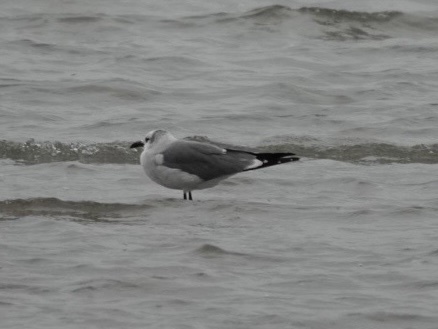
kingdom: Animalia
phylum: Chordata
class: Aves
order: Charadriiformes
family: Laridae
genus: Leucophaeus
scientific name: Leucophaeus atricilla
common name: Laughing gull
